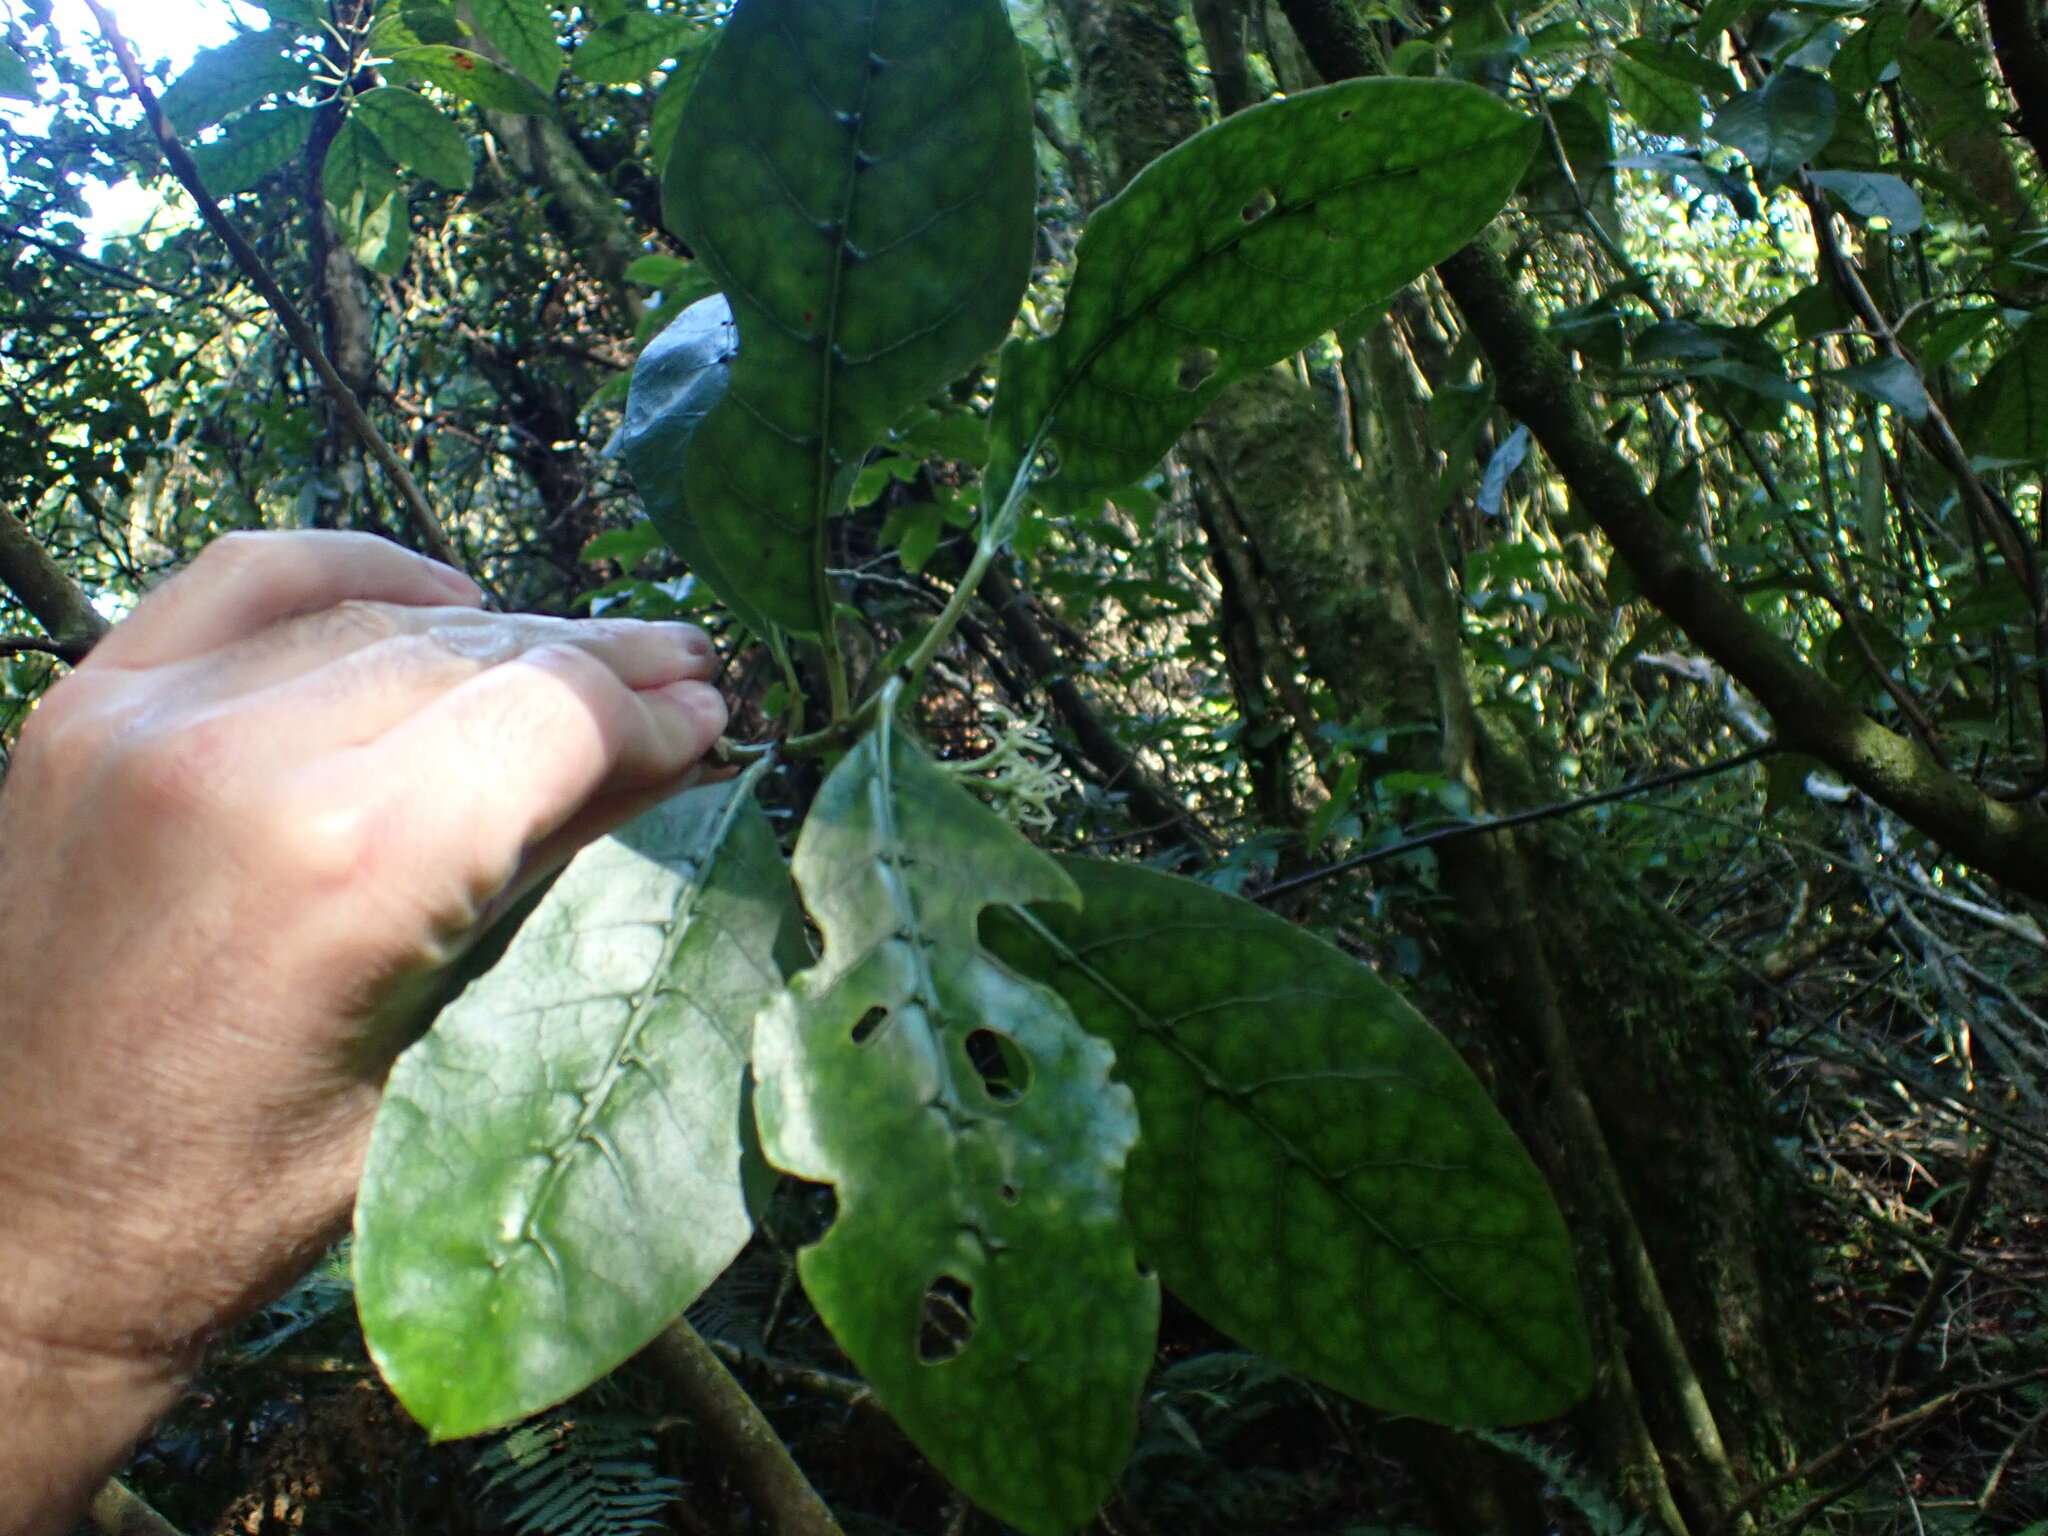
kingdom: Plantae
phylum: Tracheophyta
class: Magnoliopsida
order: Gentianales
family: Rubiaceae
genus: Coprosma
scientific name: Coprosma autumnalis
